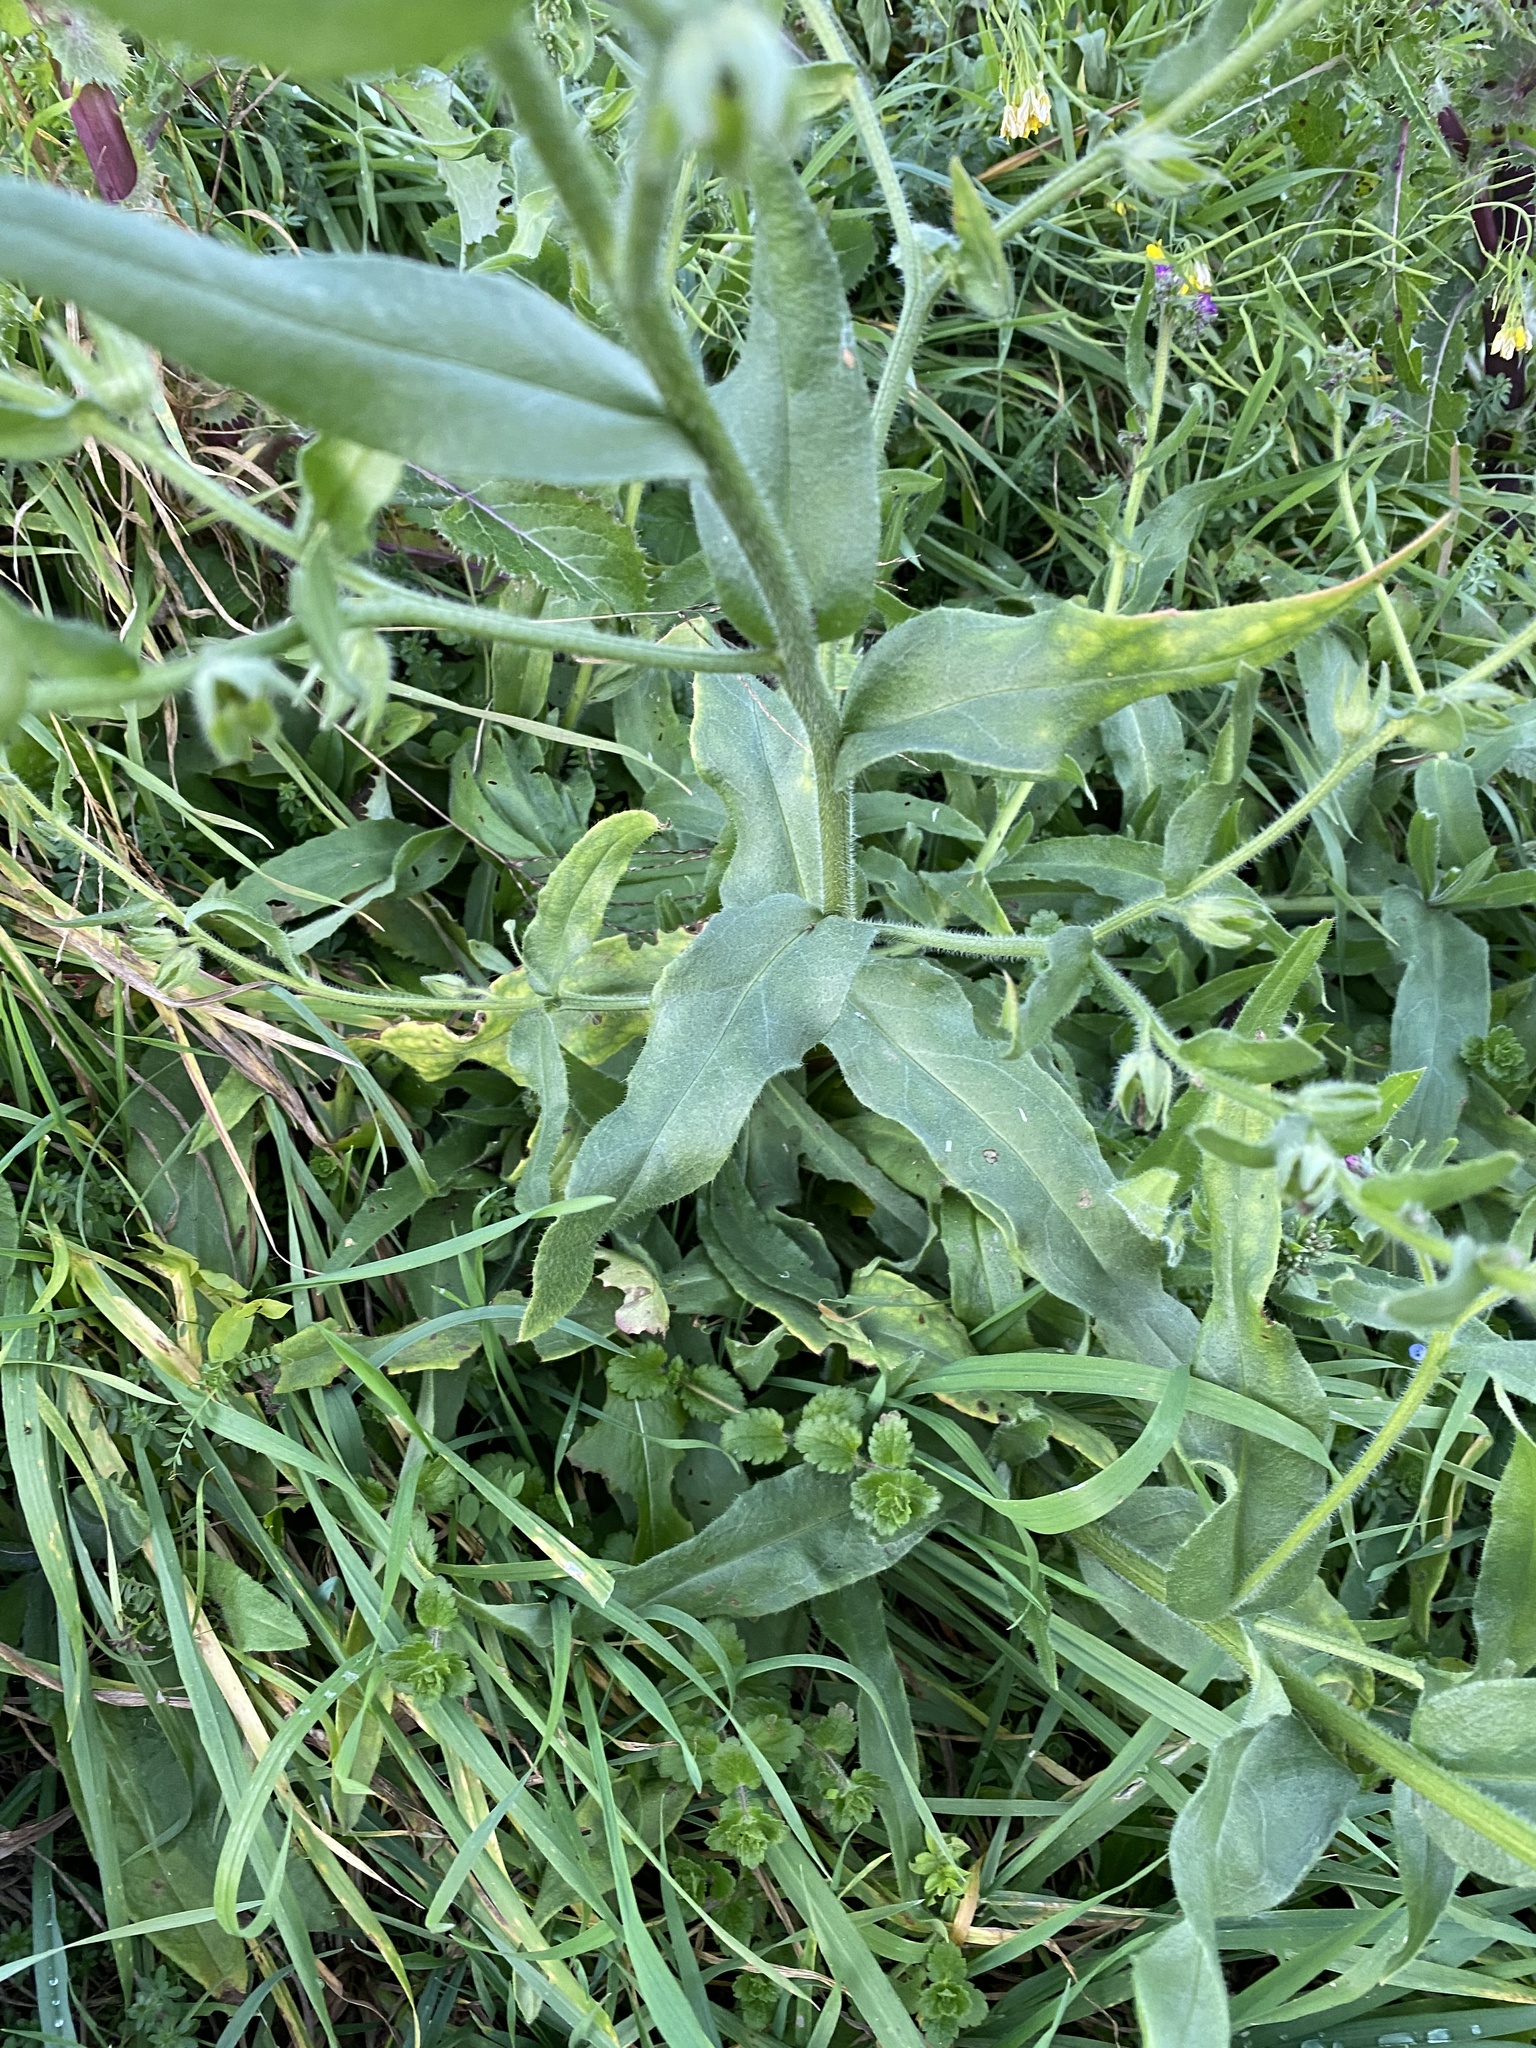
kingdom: Plantae
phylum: Tracheophyta
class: Magnoliopsida
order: Boraginales
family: Boraginaceae
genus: Anchusa
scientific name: Anchusa officinalis
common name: Alkanet
